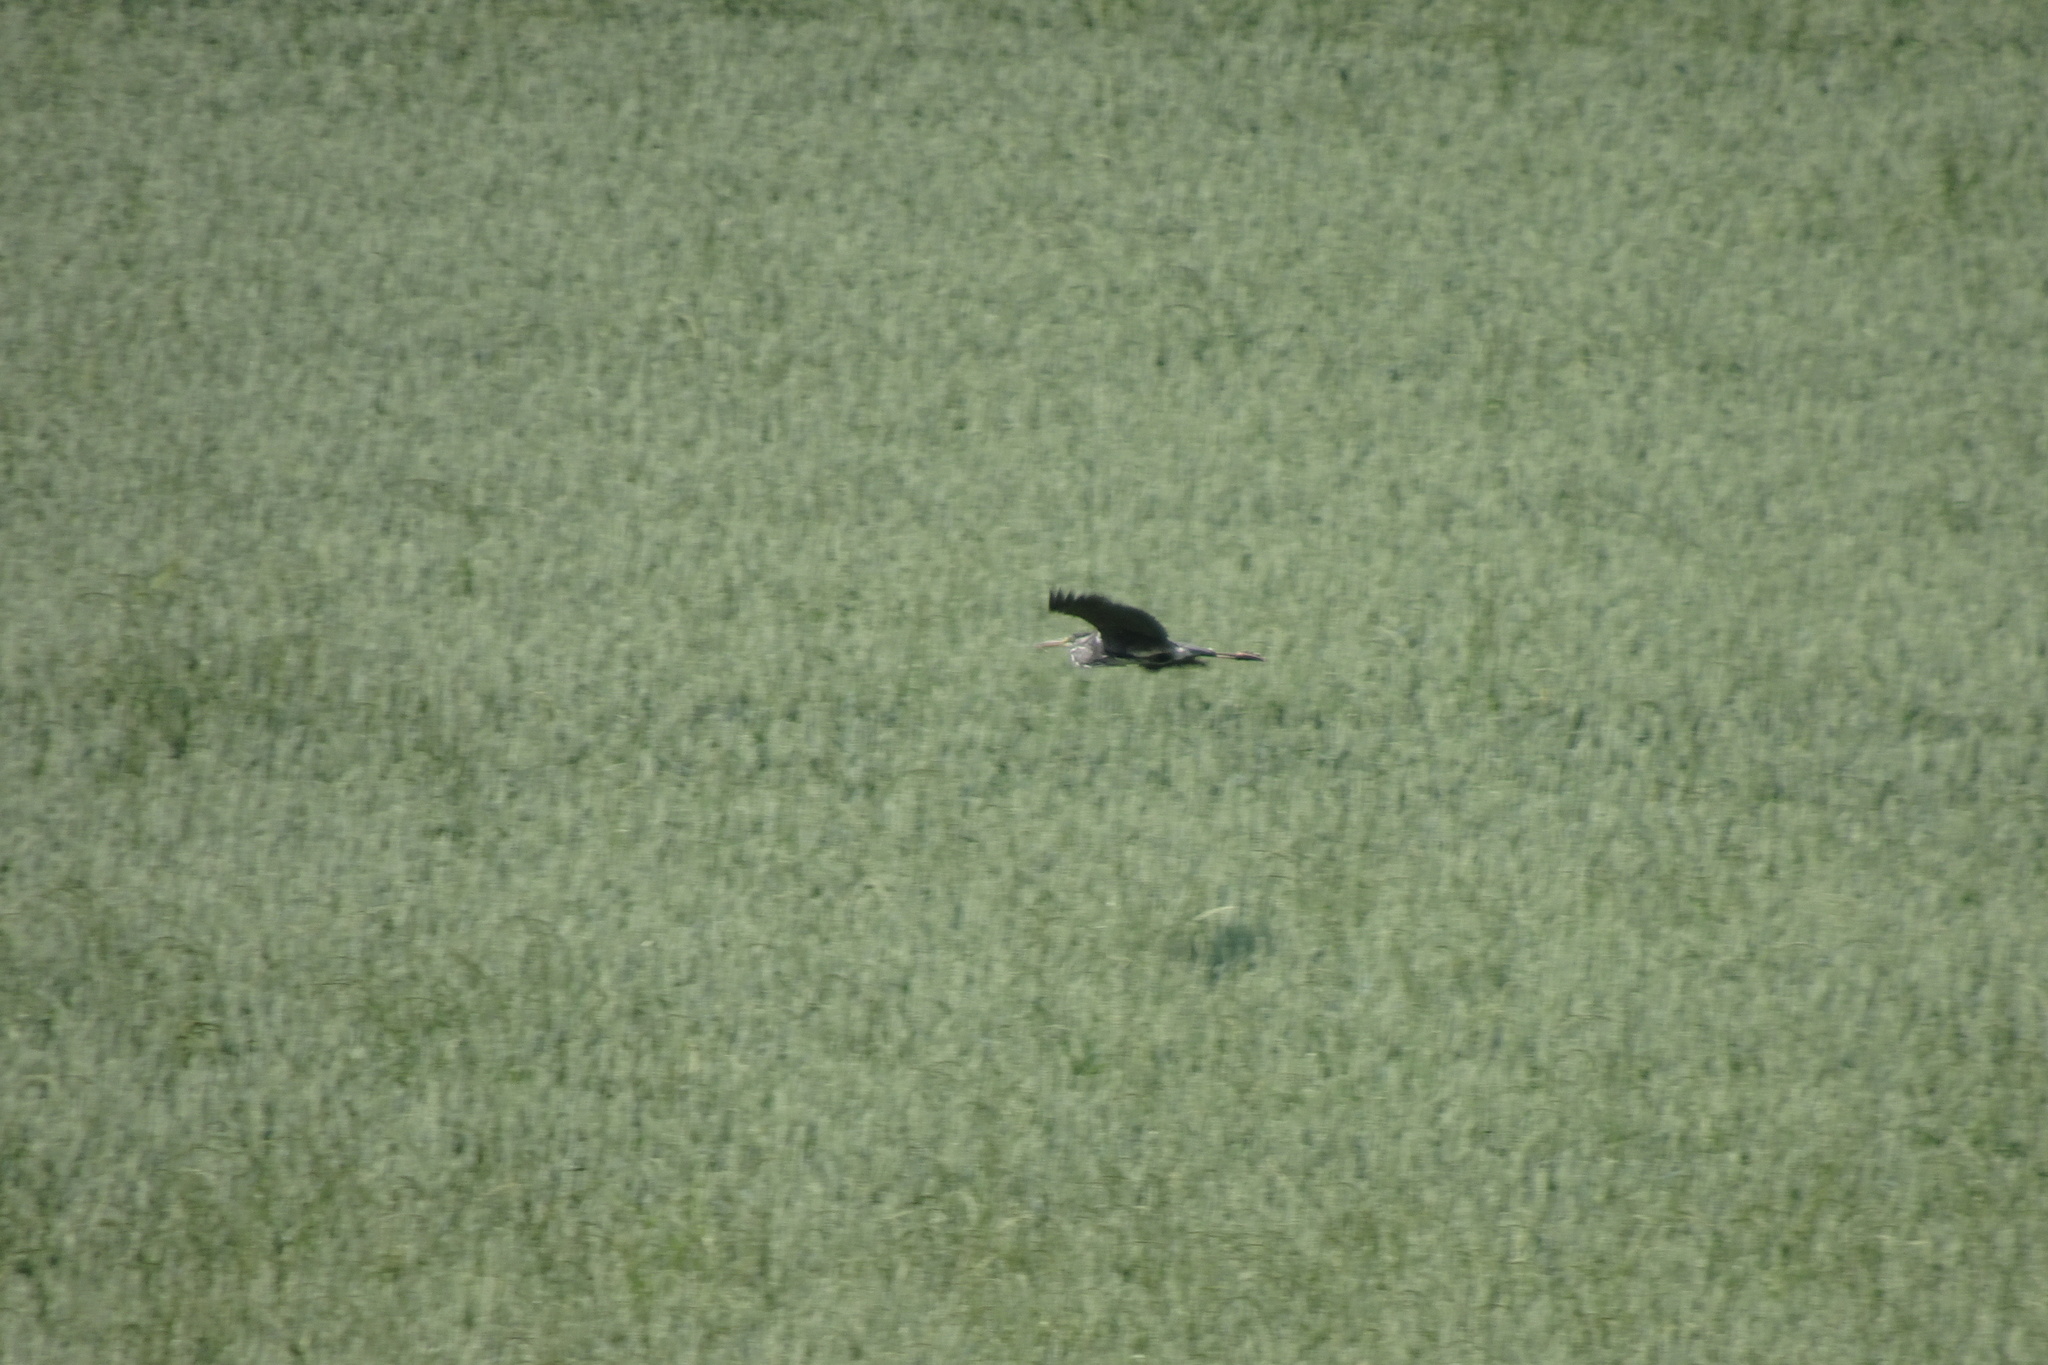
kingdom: Animalia
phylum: Chordata
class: Aves
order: Pelecaniformes
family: Ardeidae
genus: Ardea
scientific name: Ardea cinerea
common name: Grey heron
